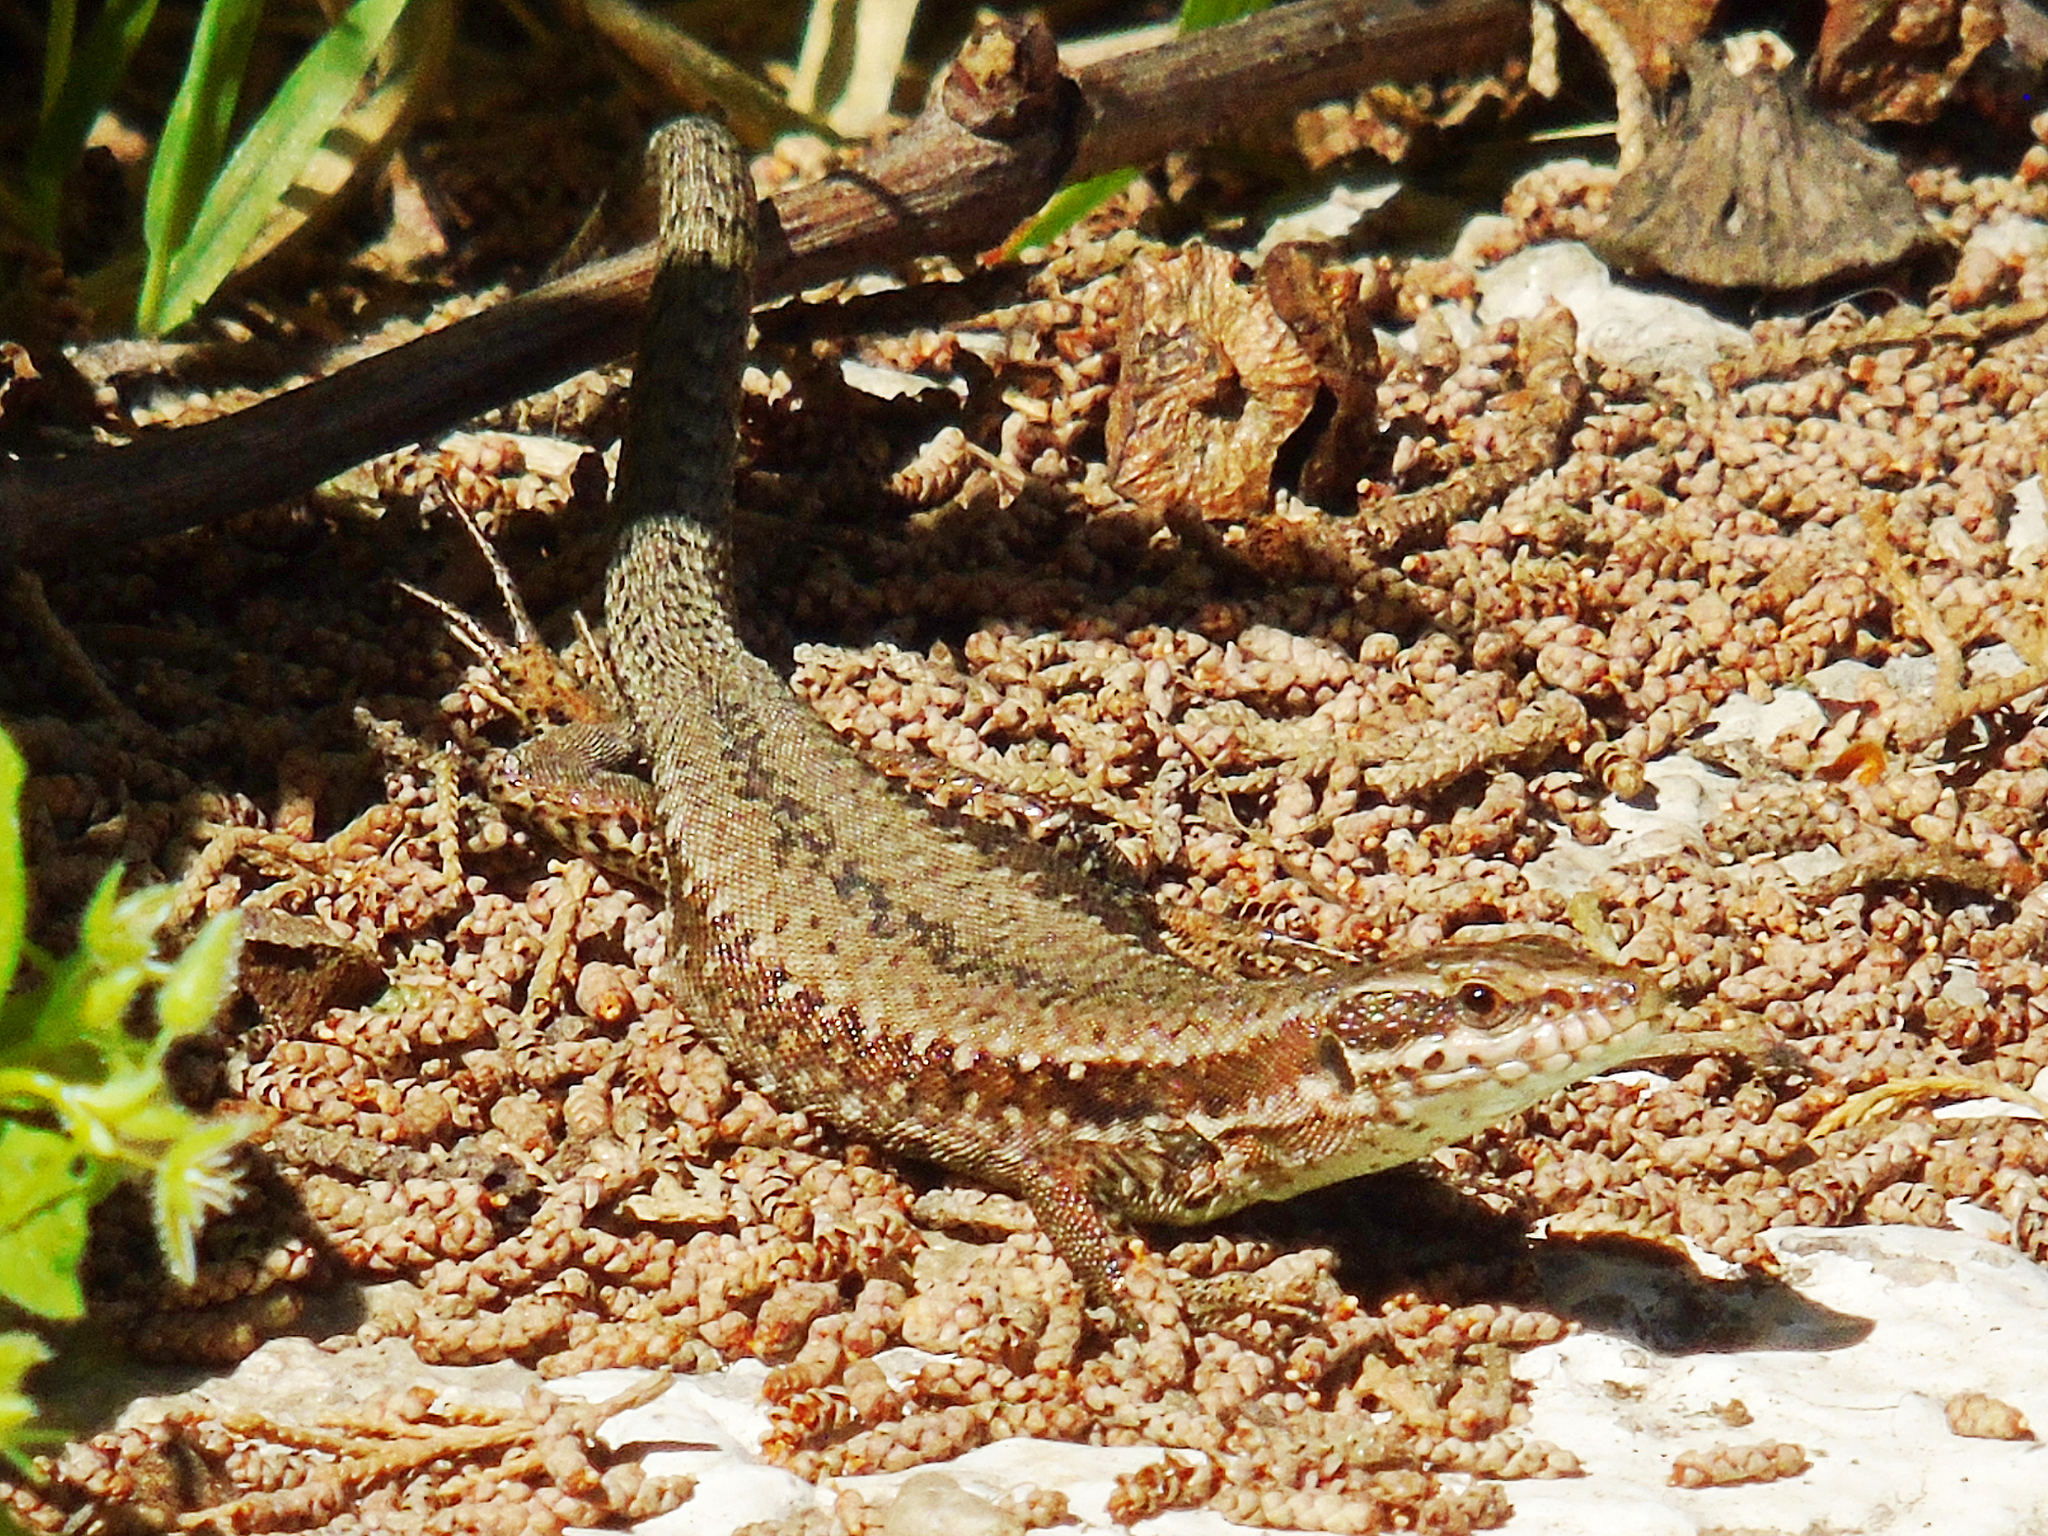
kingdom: Animalia
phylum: Chordata
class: Squamata
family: Lacertidae
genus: Podarcis
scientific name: Podarcis muralis
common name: Common wall lizard
